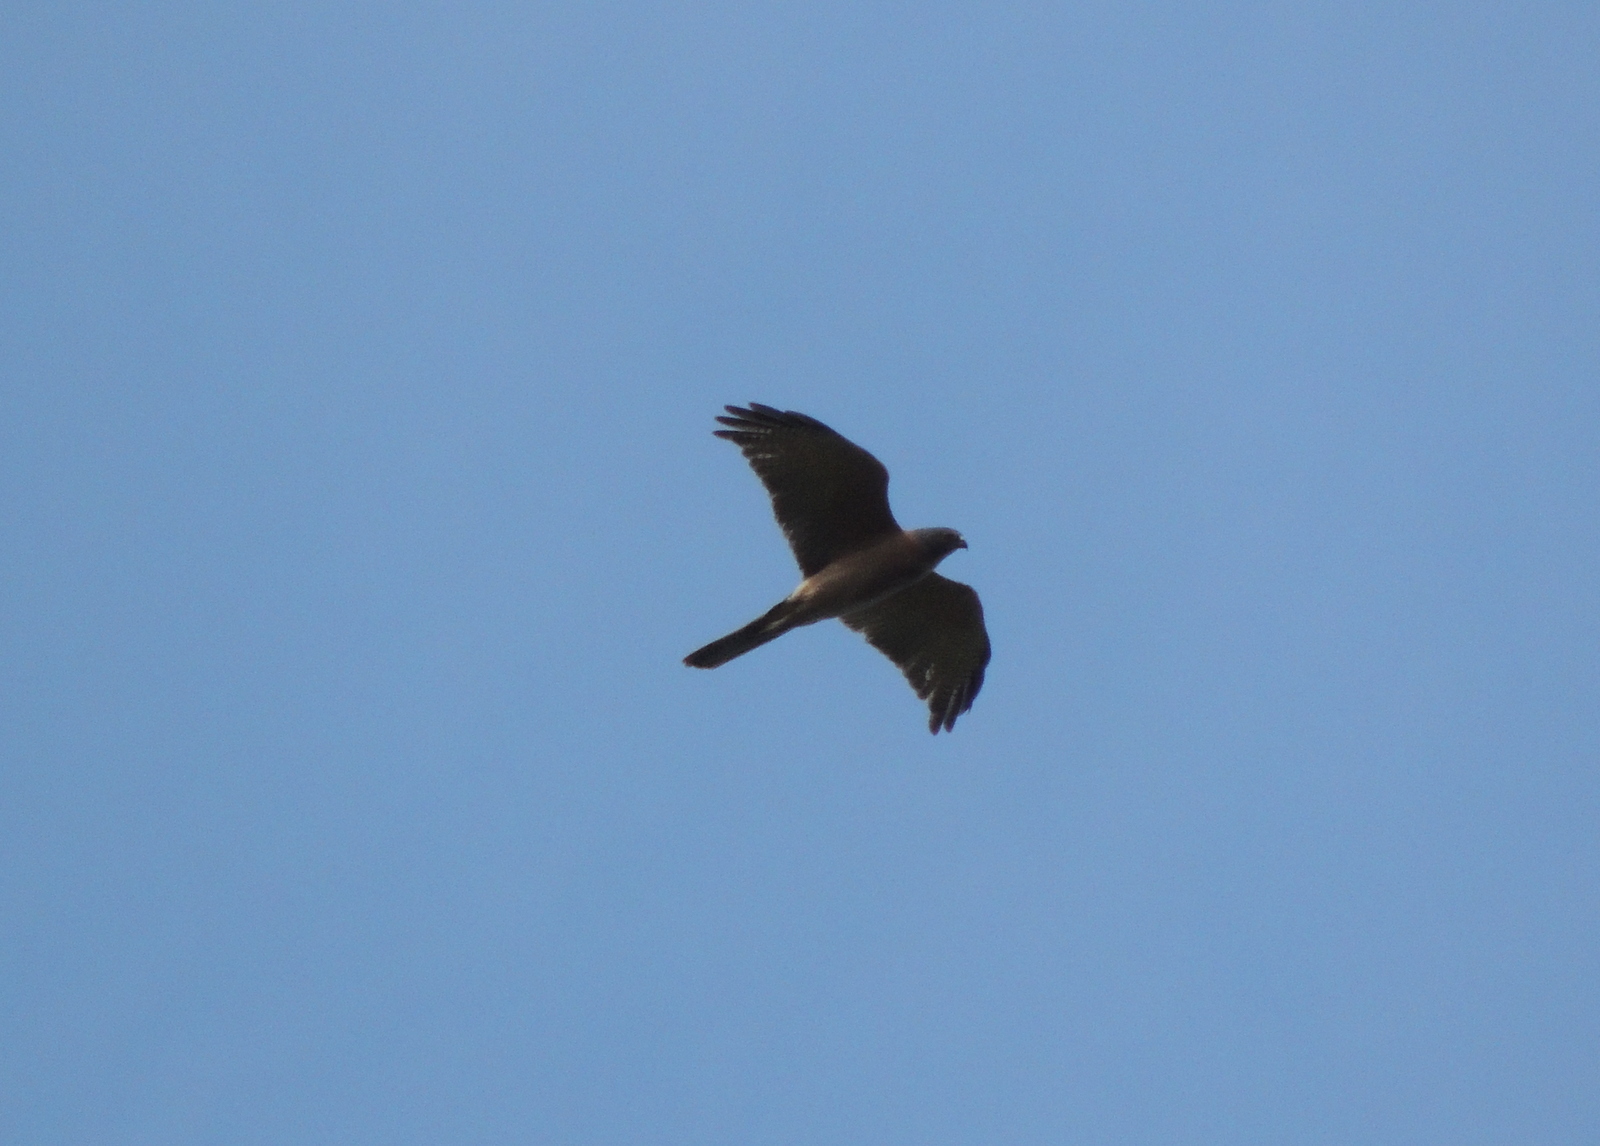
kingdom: Animalia
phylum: Chordata
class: Aves
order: Accipitriformes
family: Accipitridae
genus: Accipiter
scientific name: Accipiter fasciatus
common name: Brown goshawk
